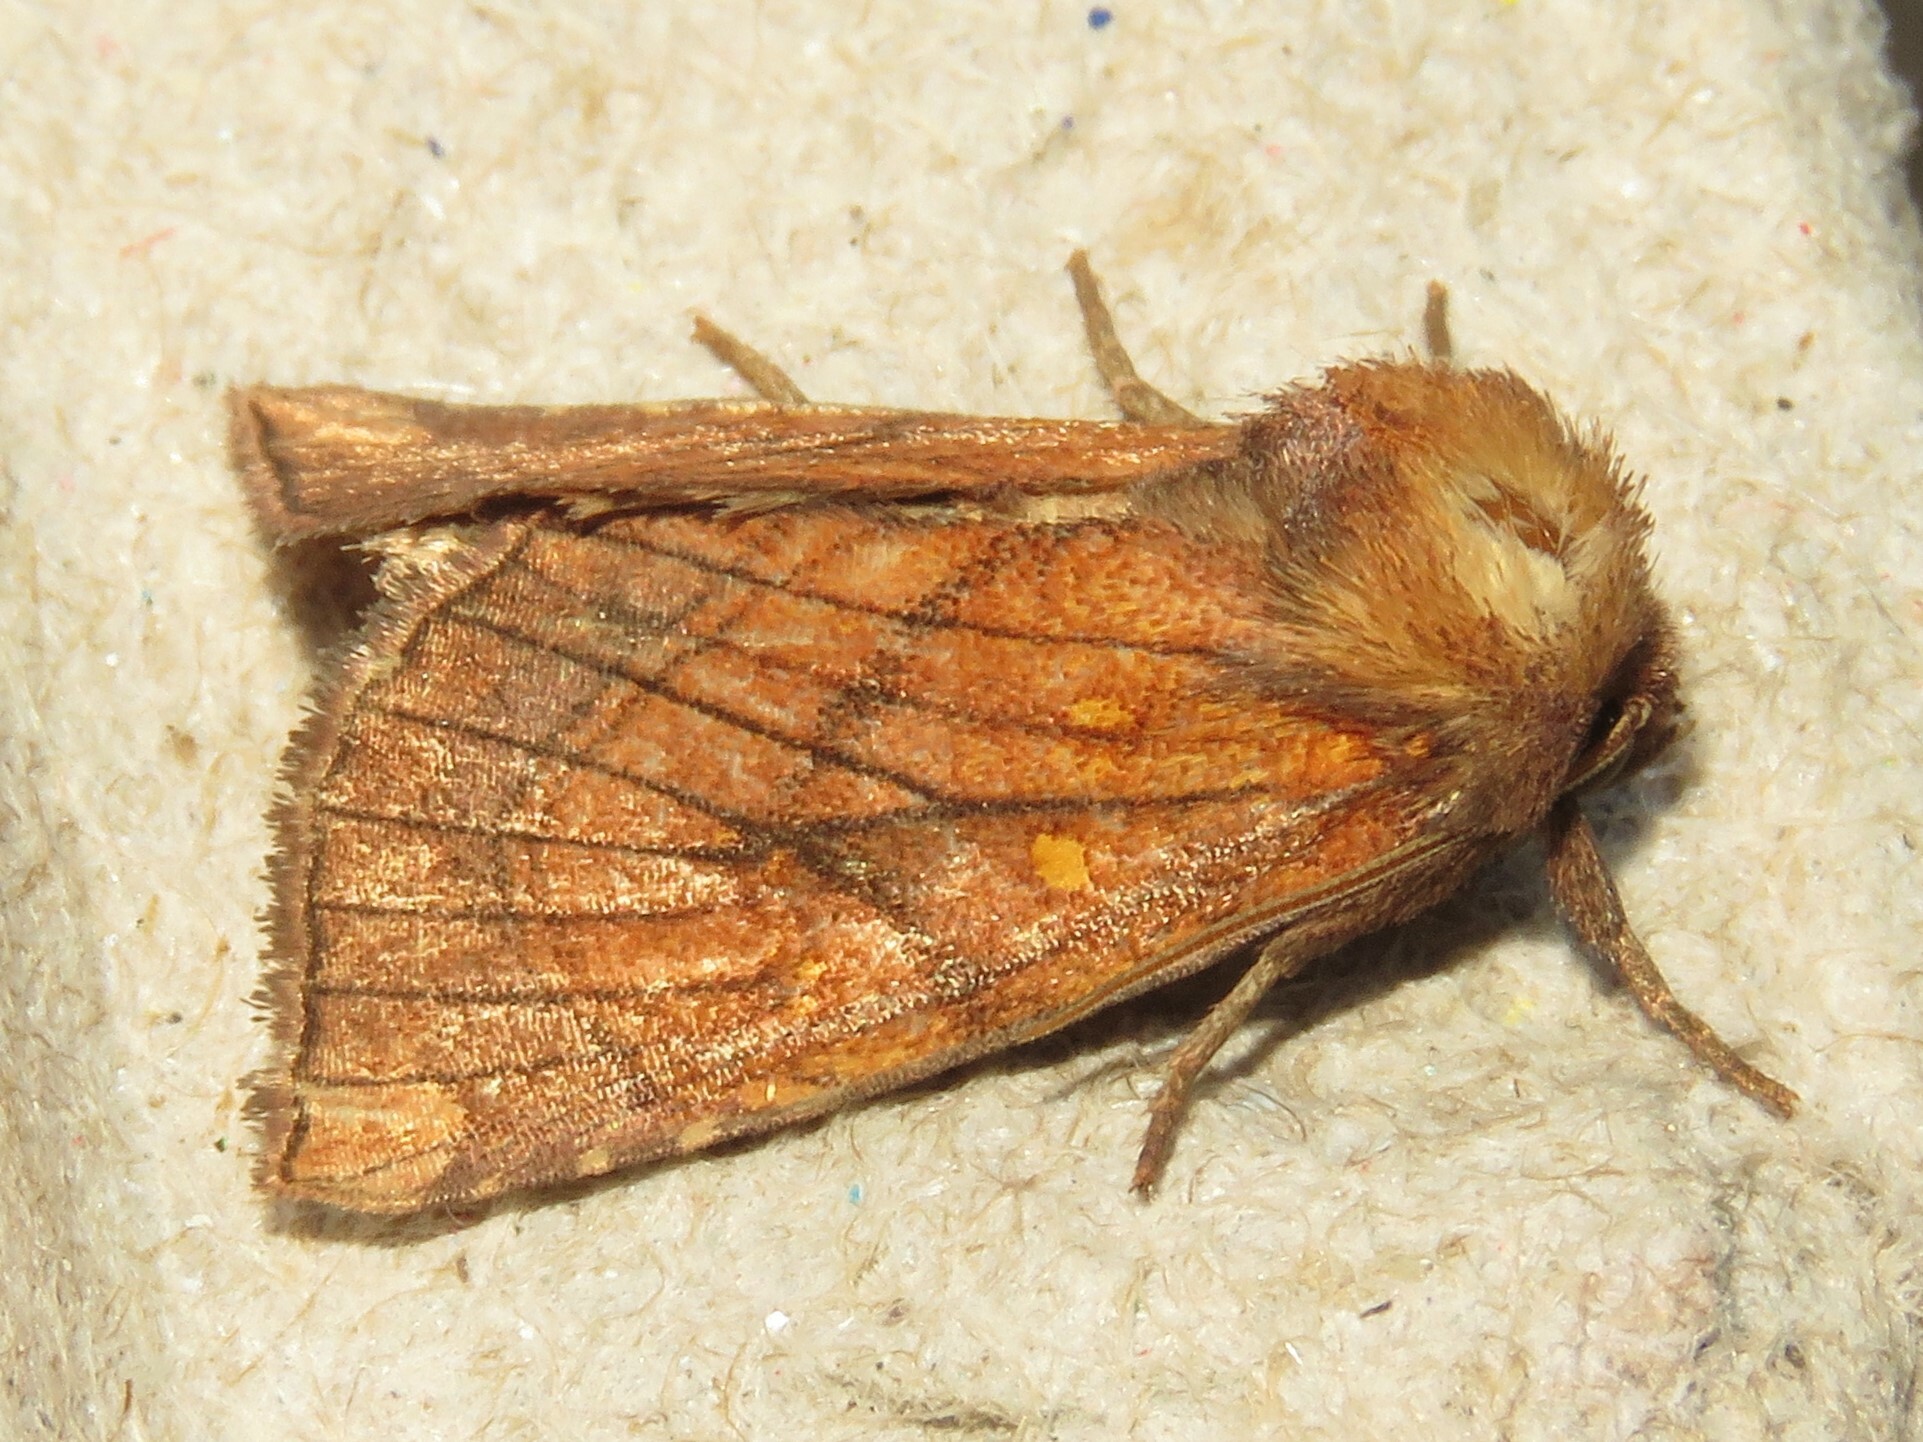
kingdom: Animalia
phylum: Arthropoda
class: Insecta
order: Lepidoptera
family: Noctuidae
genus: Papaipema
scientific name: Papaipema inquaesita
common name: Sensitive fern borer moth
